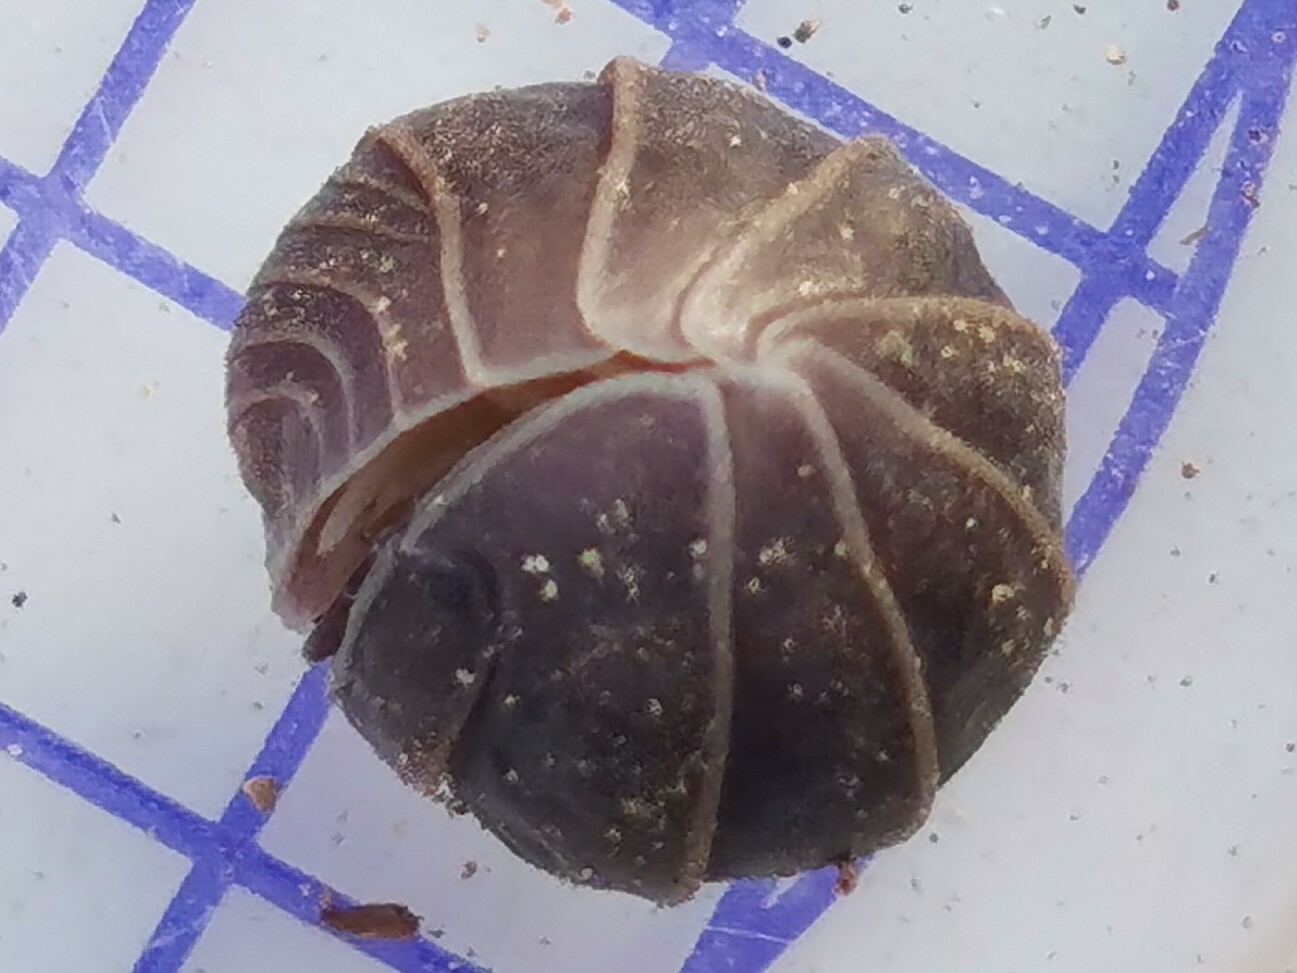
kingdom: Animalia
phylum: Arthropoda
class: Malacostraca
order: Isopoda
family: Armadillidae
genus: Armadillo
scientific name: Armadillo officinalis
